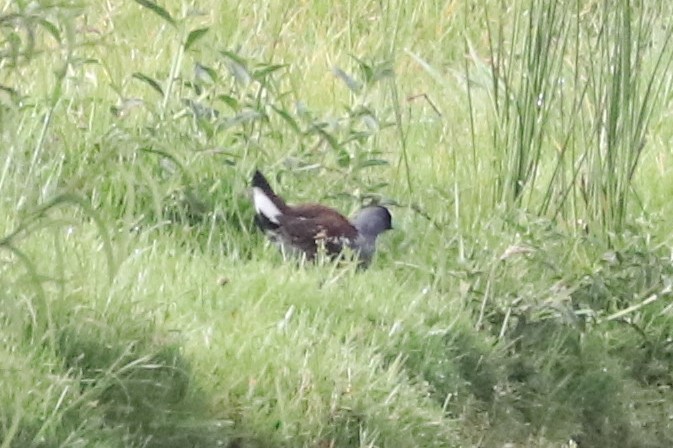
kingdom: Animalia
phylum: Chordata
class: Aves
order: Gruiformes
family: Rallidae
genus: Gallinula
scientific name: Gallinula melanops
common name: Spot-flanked gallinule
